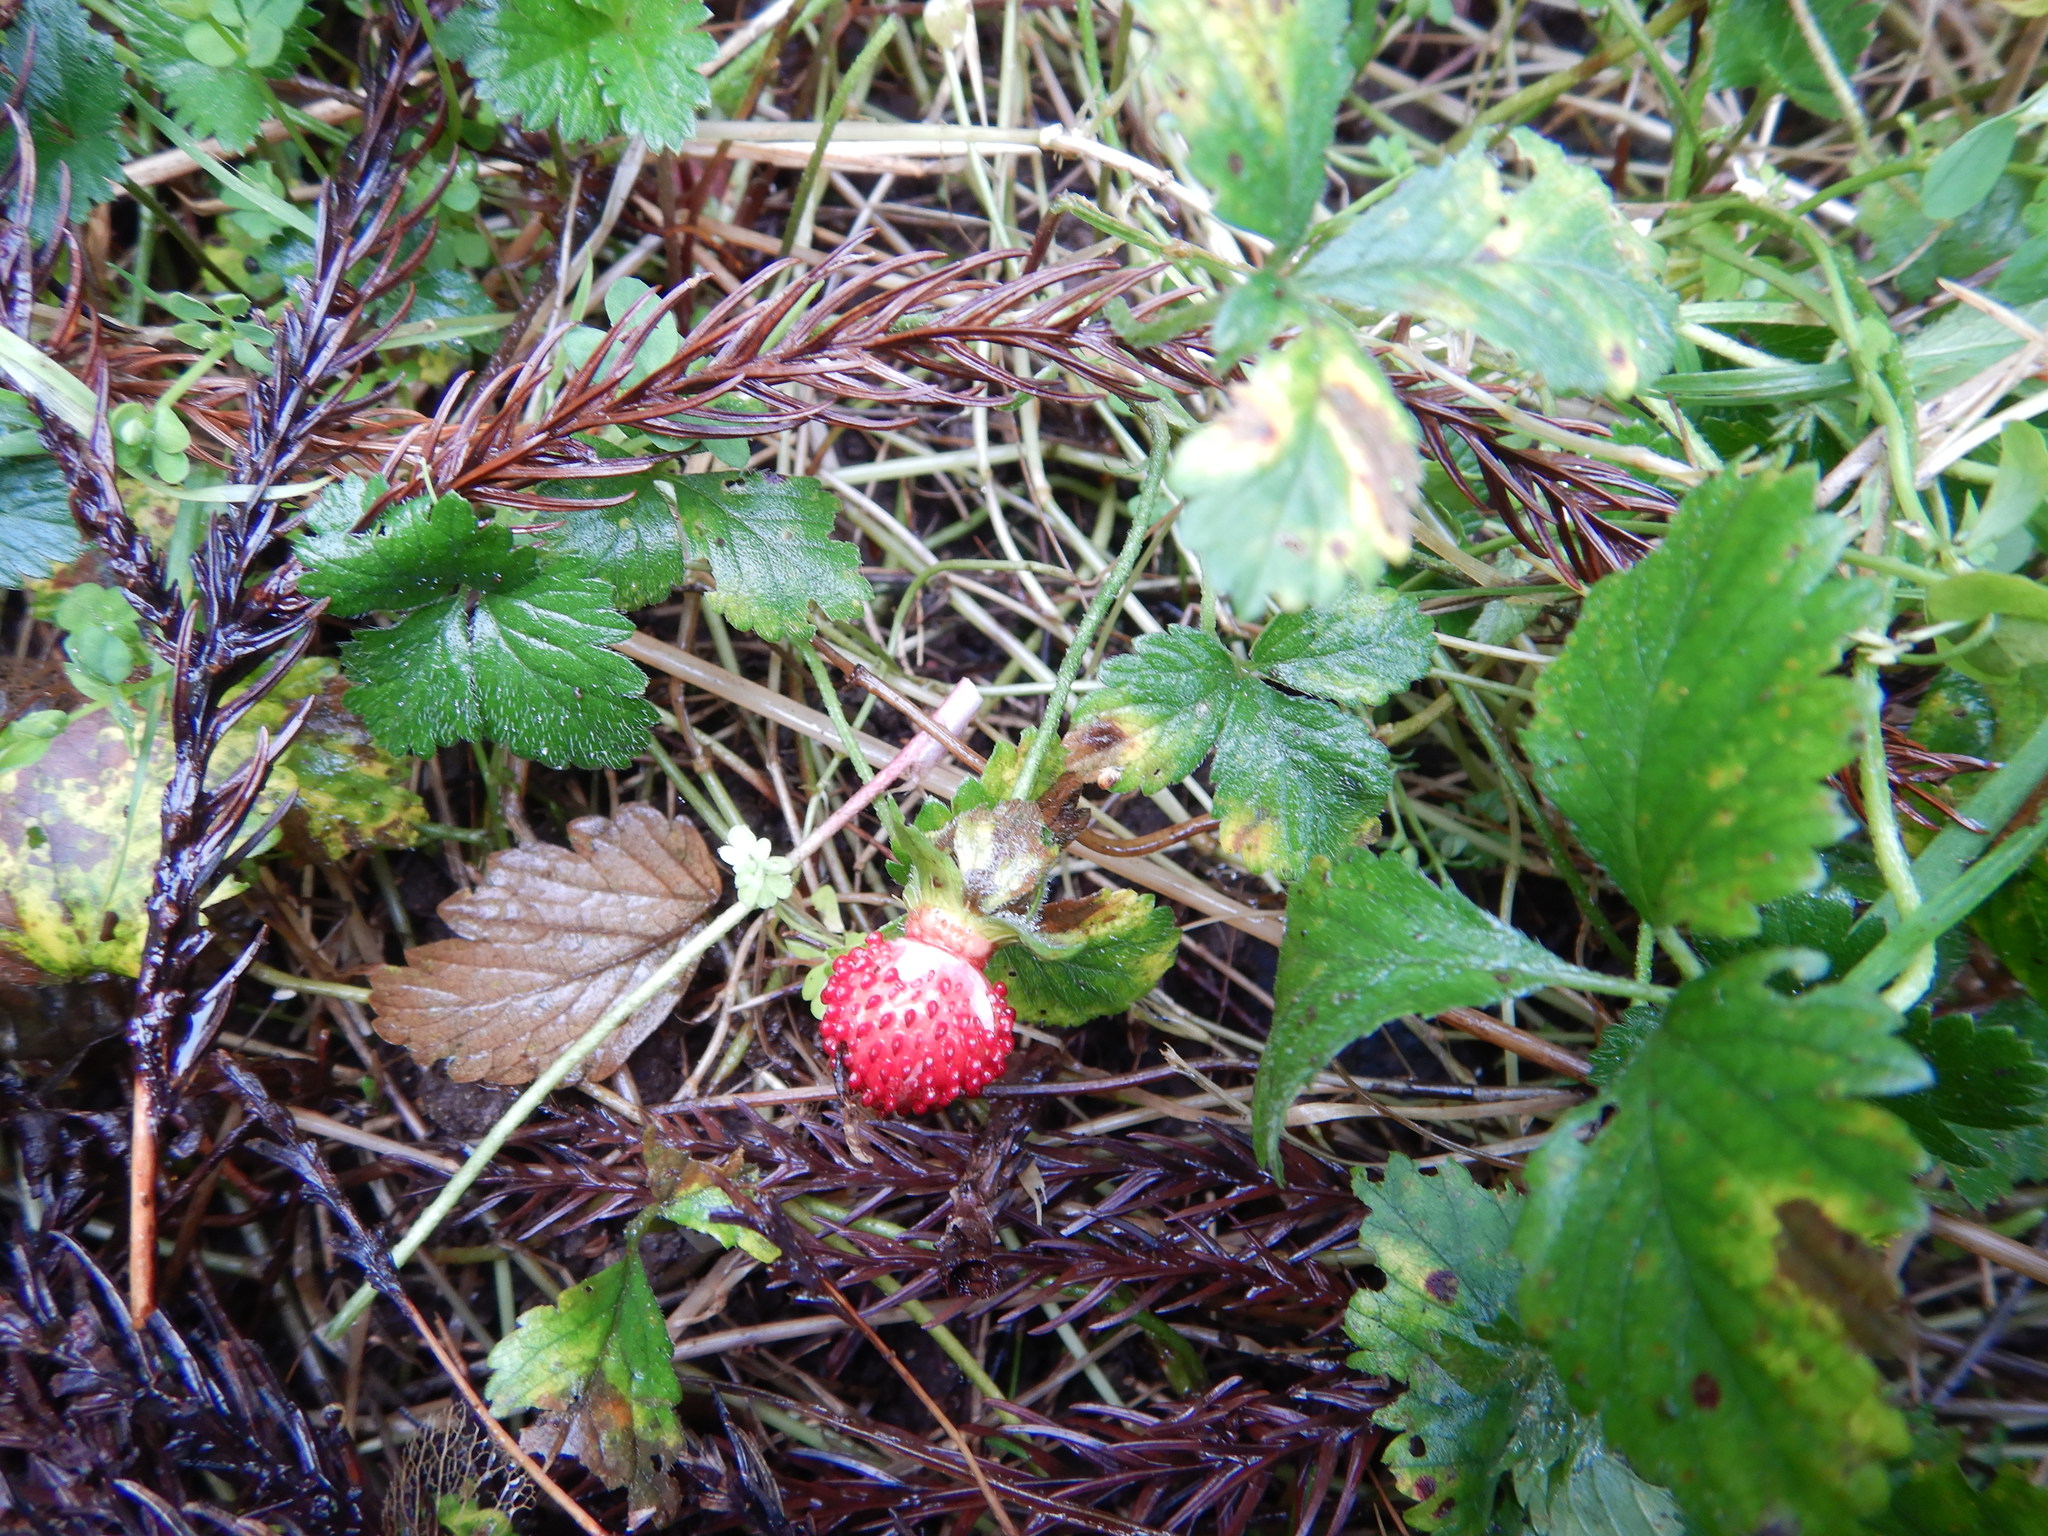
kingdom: Plantae
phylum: Tracheophyta
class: Magnoliopsida
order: Rosales
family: Rosaceae
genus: Potentilla
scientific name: Potentilla indica
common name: Yellow-flowered strawberry
